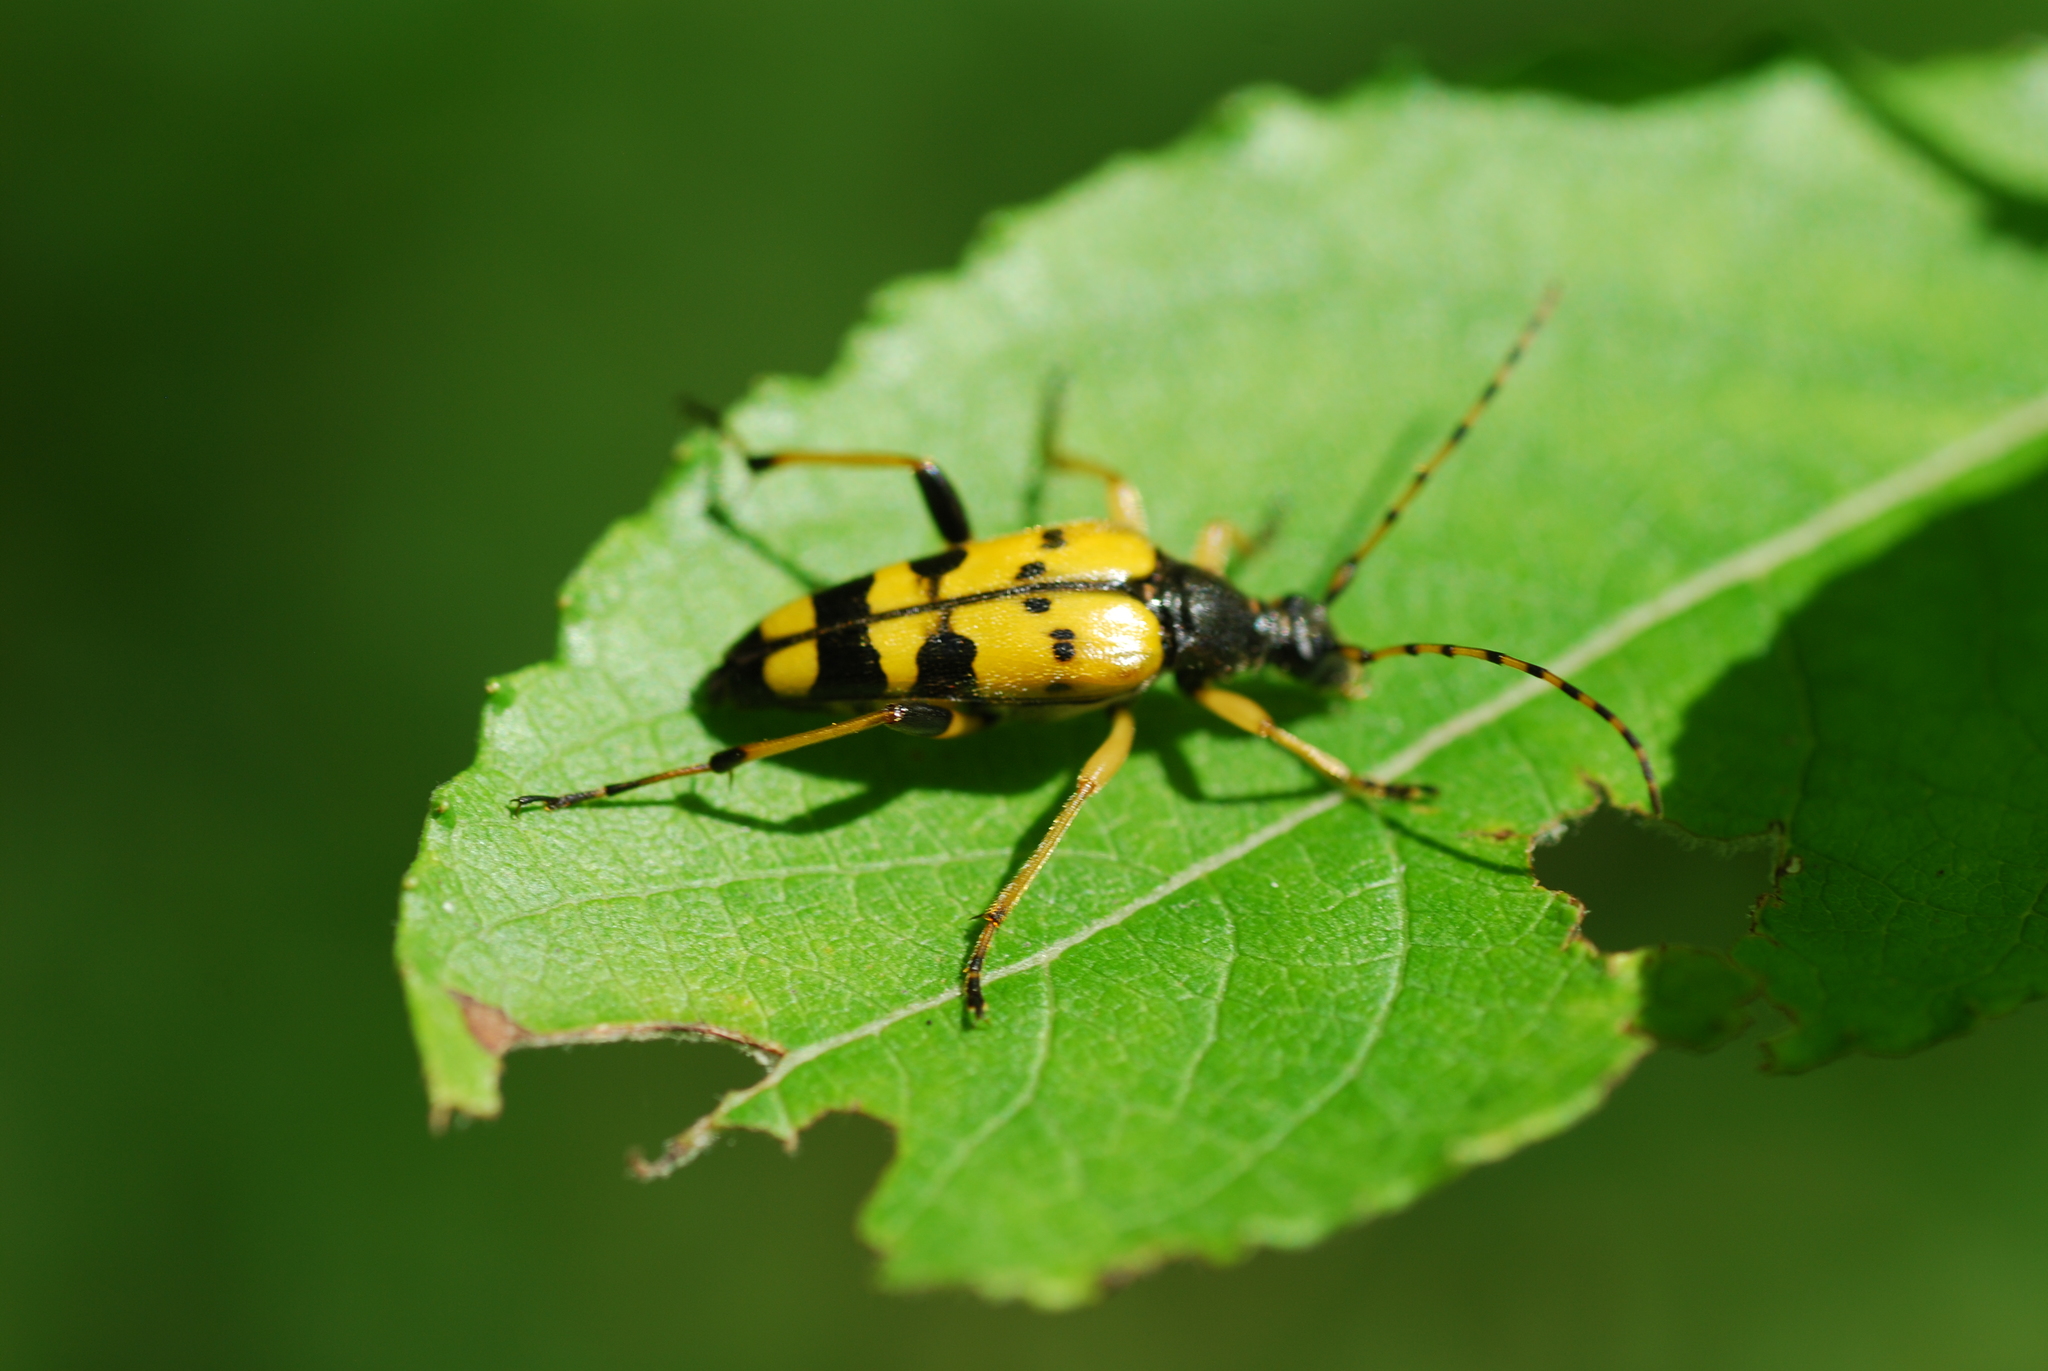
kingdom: Animalia
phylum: Arthropoda
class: Insecta
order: Coleoptera
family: Cerambycidae
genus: Rutpela
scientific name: Rutpela maculata
